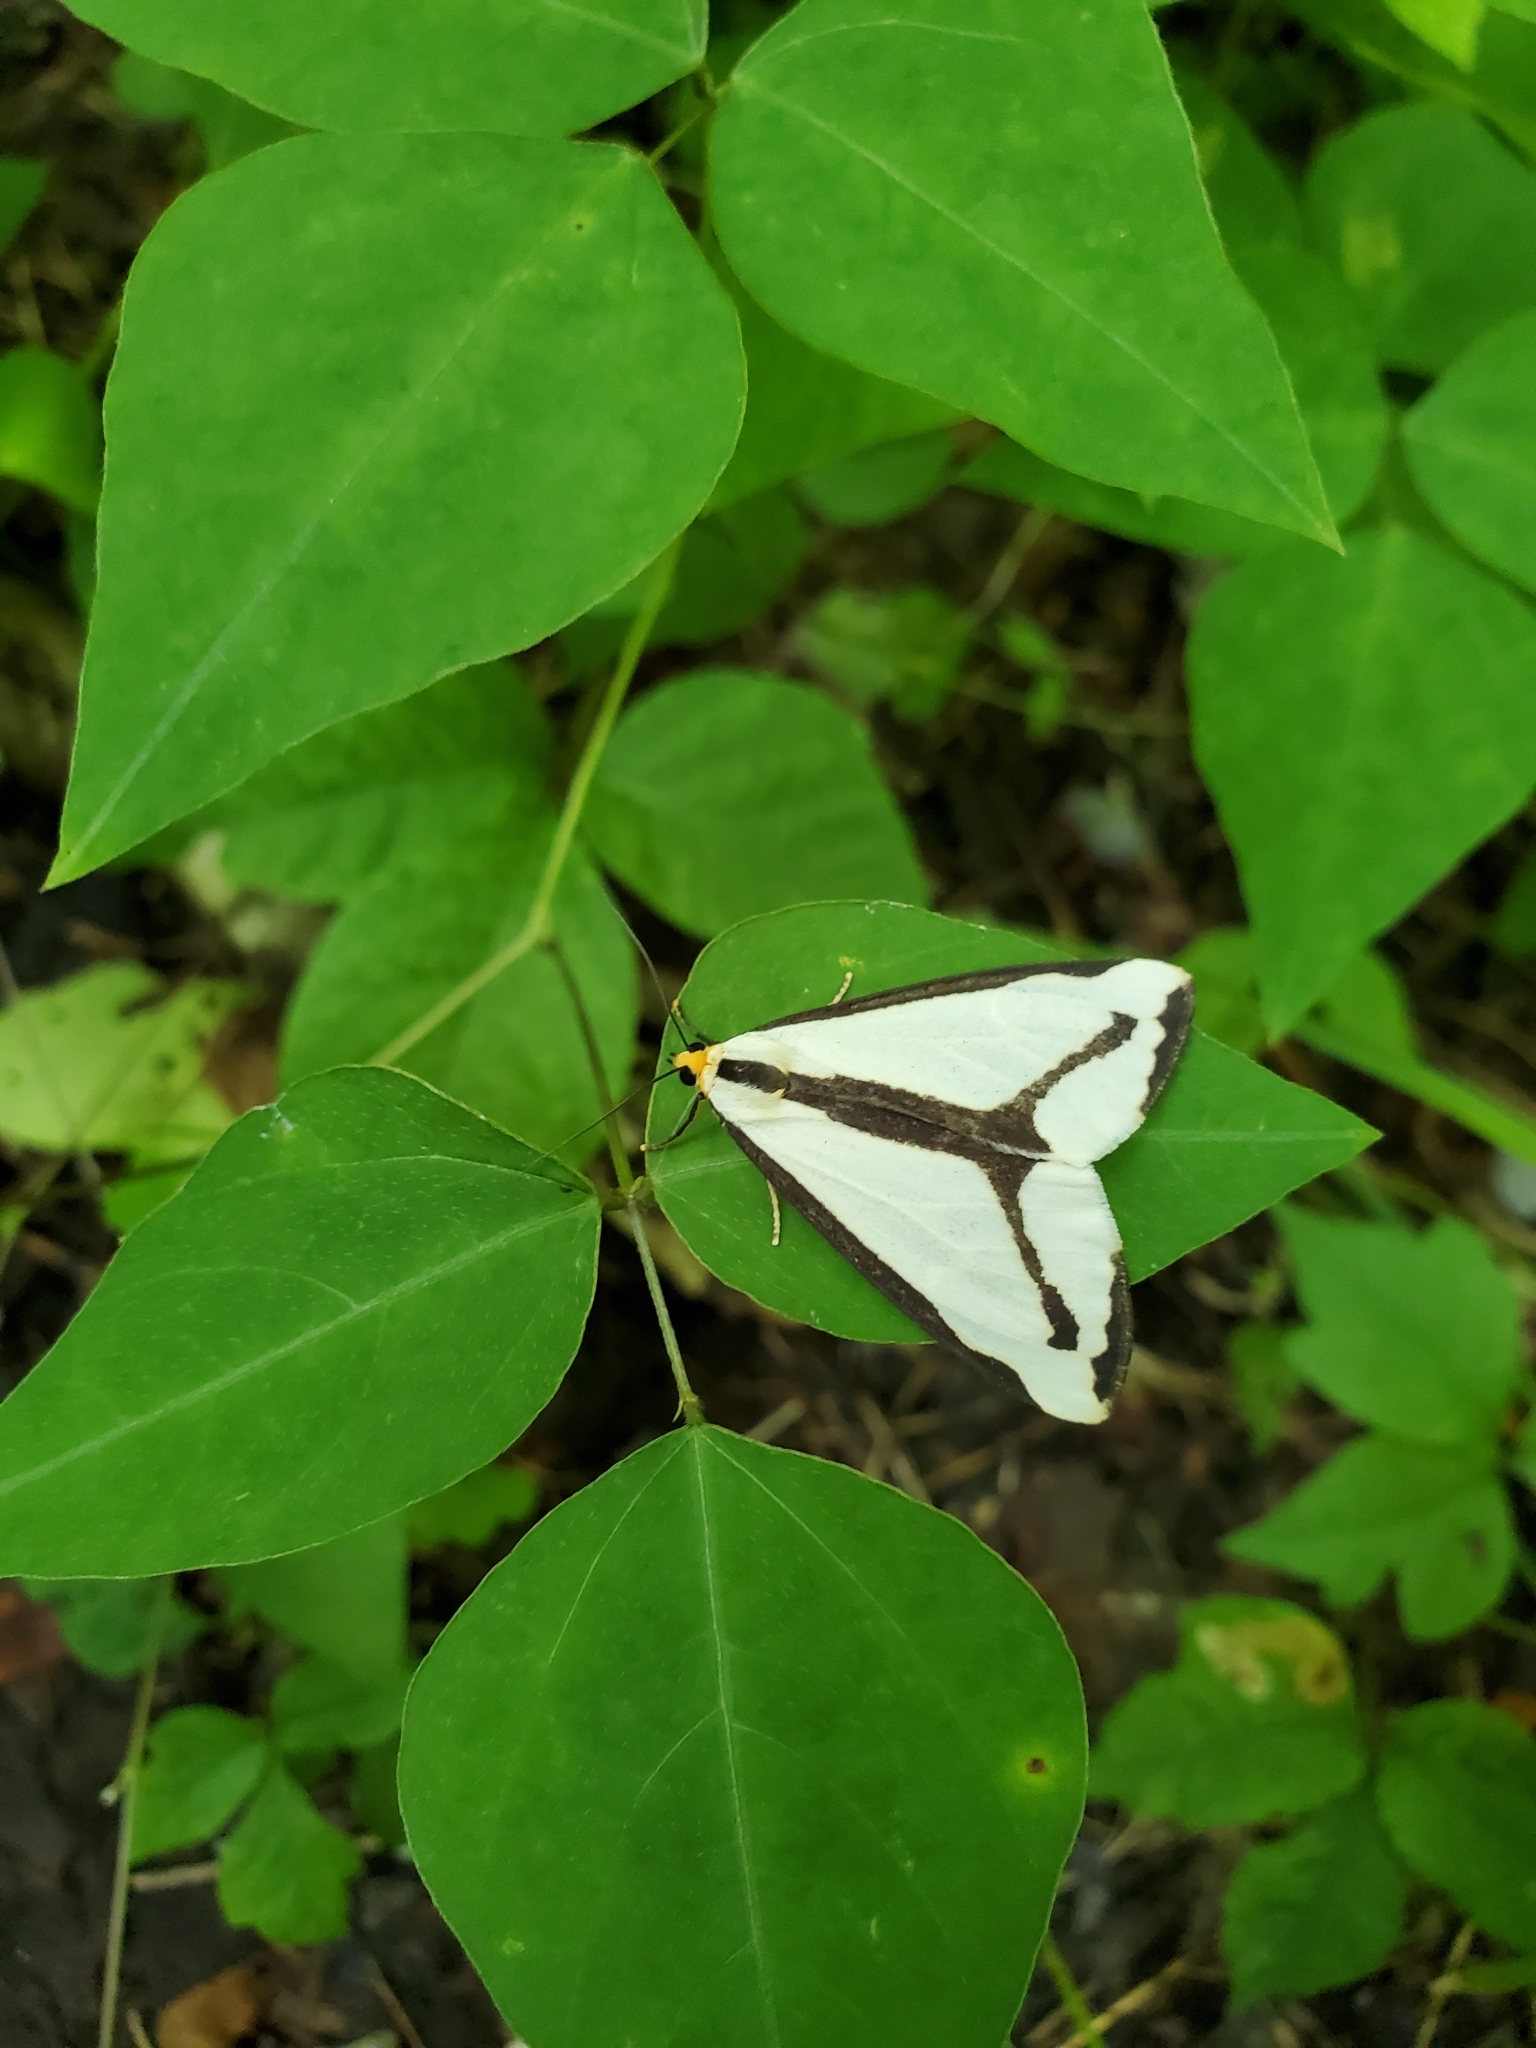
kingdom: Animalia
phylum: Arthropoda
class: Insecta
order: Lepidoptera
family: Erebidae
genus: Haploa
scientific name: Haploa lecontei
